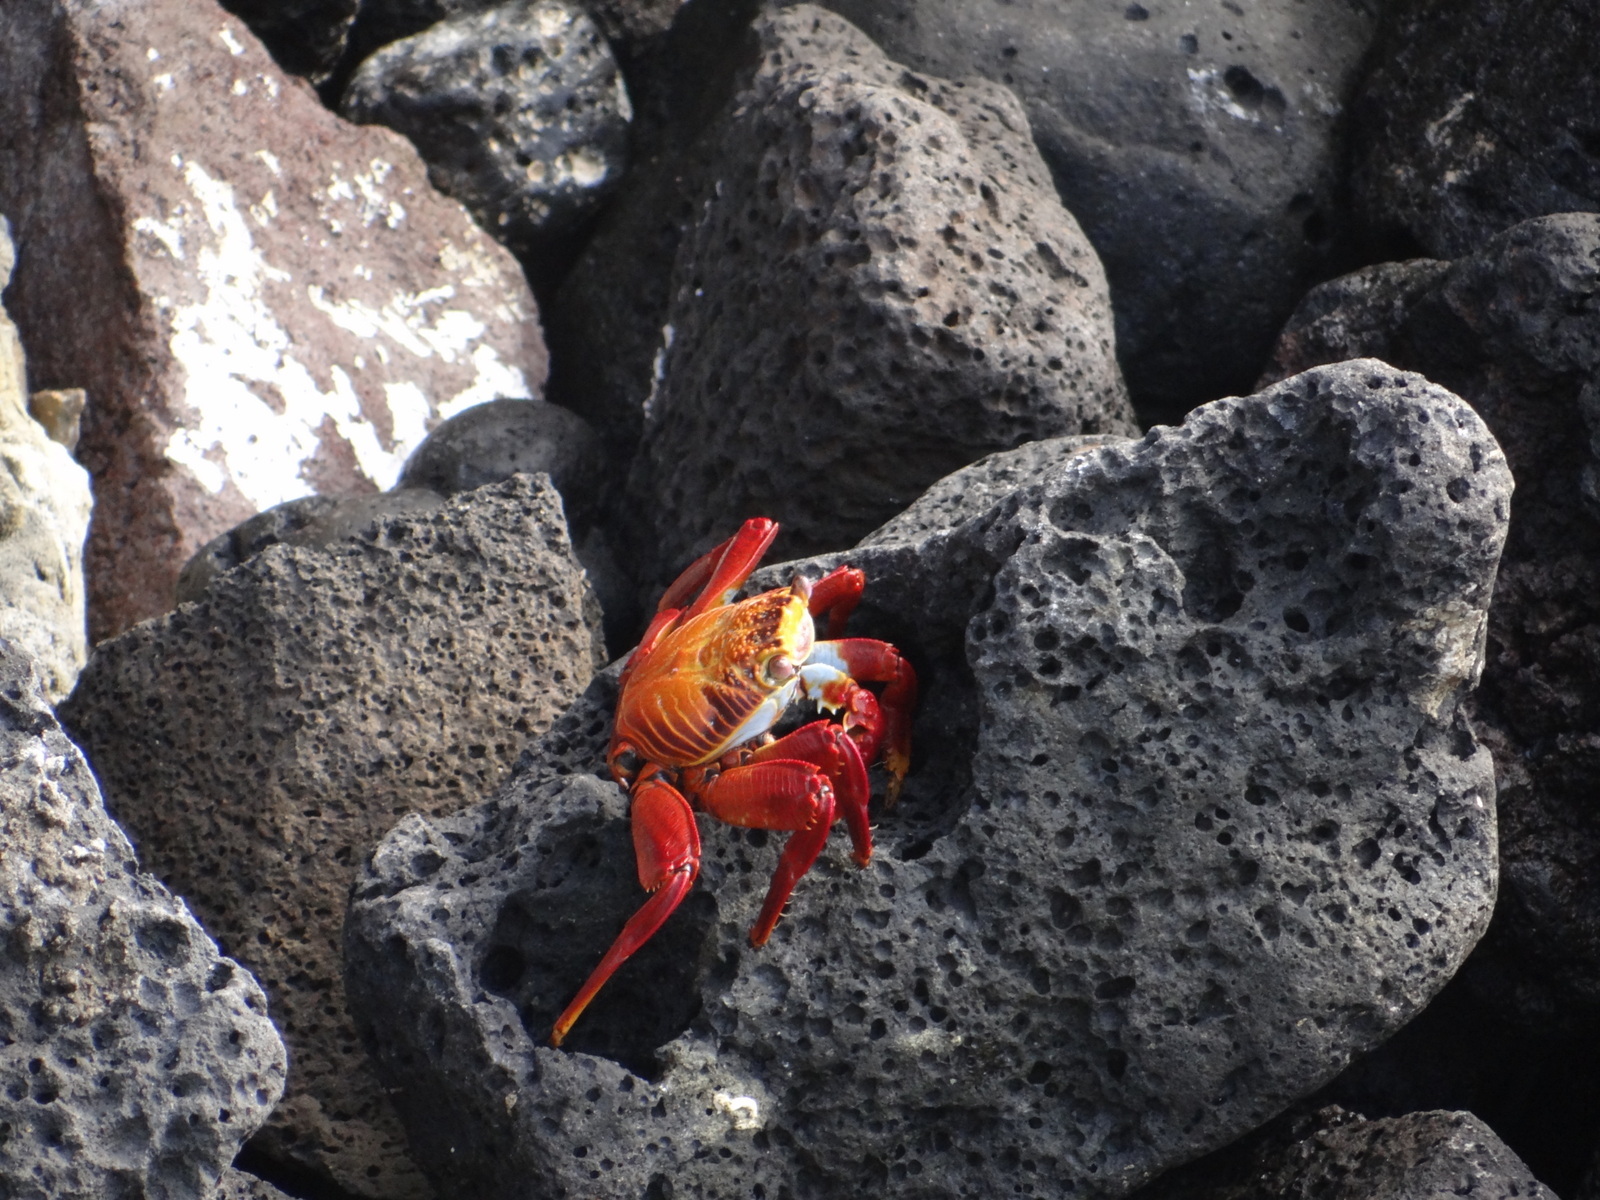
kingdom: Animalia
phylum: Arthropoda
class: Malacostraca
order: Decapoda
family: Grapsidae
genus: Grapsus
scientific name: Grapsus grapsus
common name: Sally lightfoot
